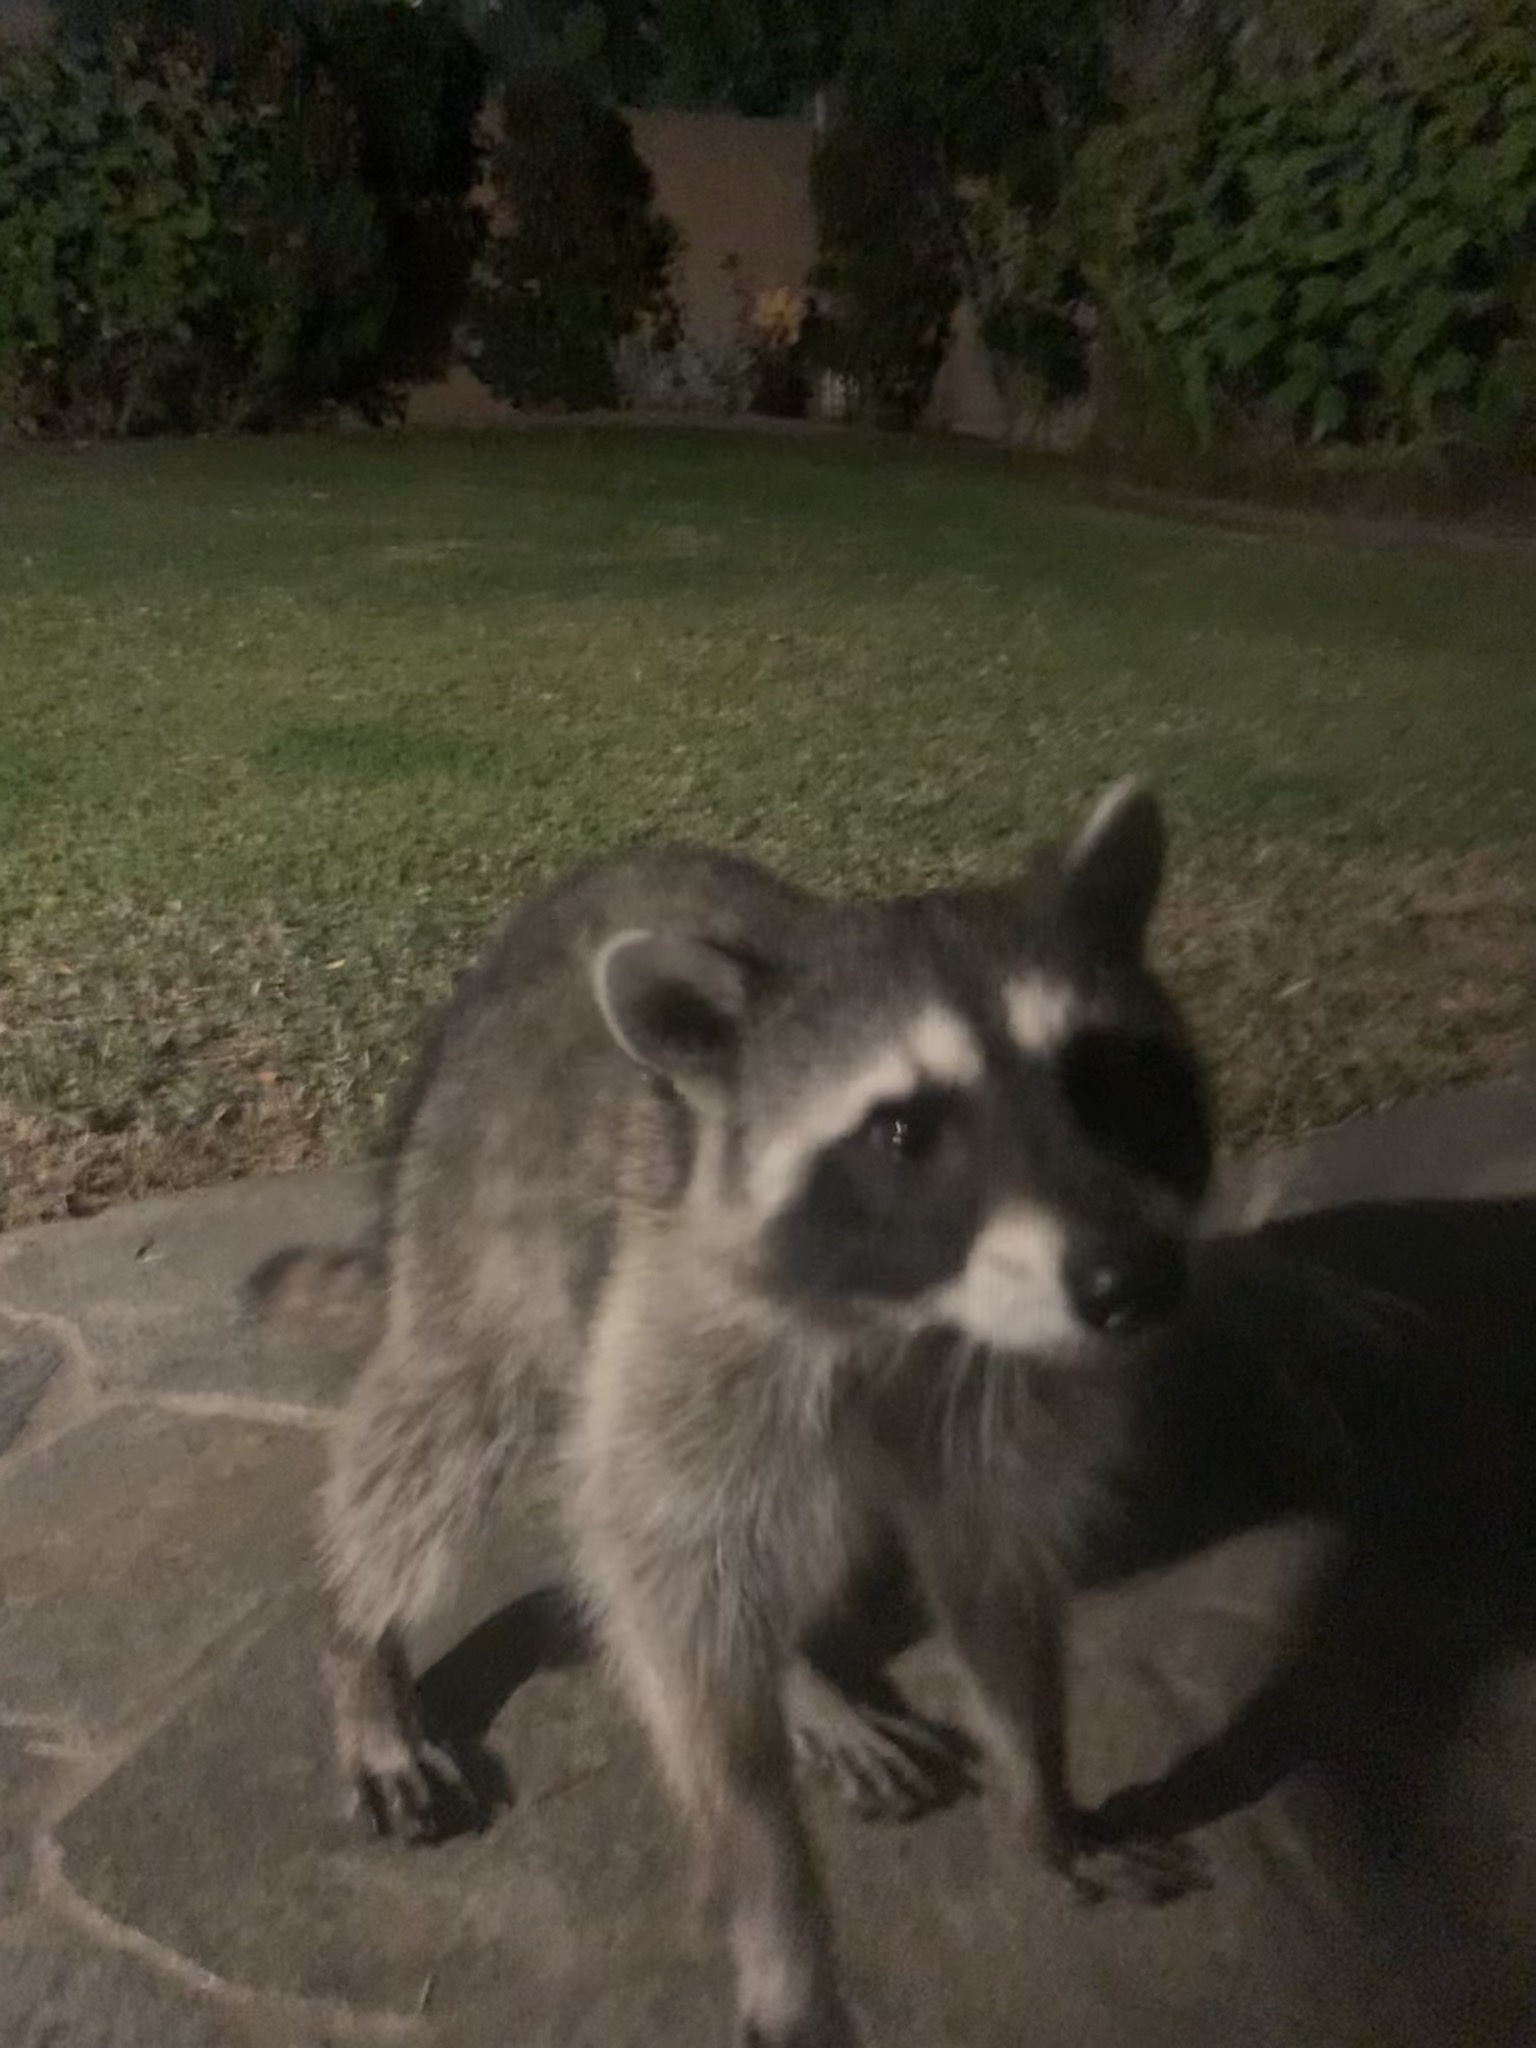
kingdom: Animalia
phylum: Chordata
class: Mammalia
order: Carnivora
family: Procyonidae
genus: Procyon
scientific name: Procyon lotor
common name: Raccoon
